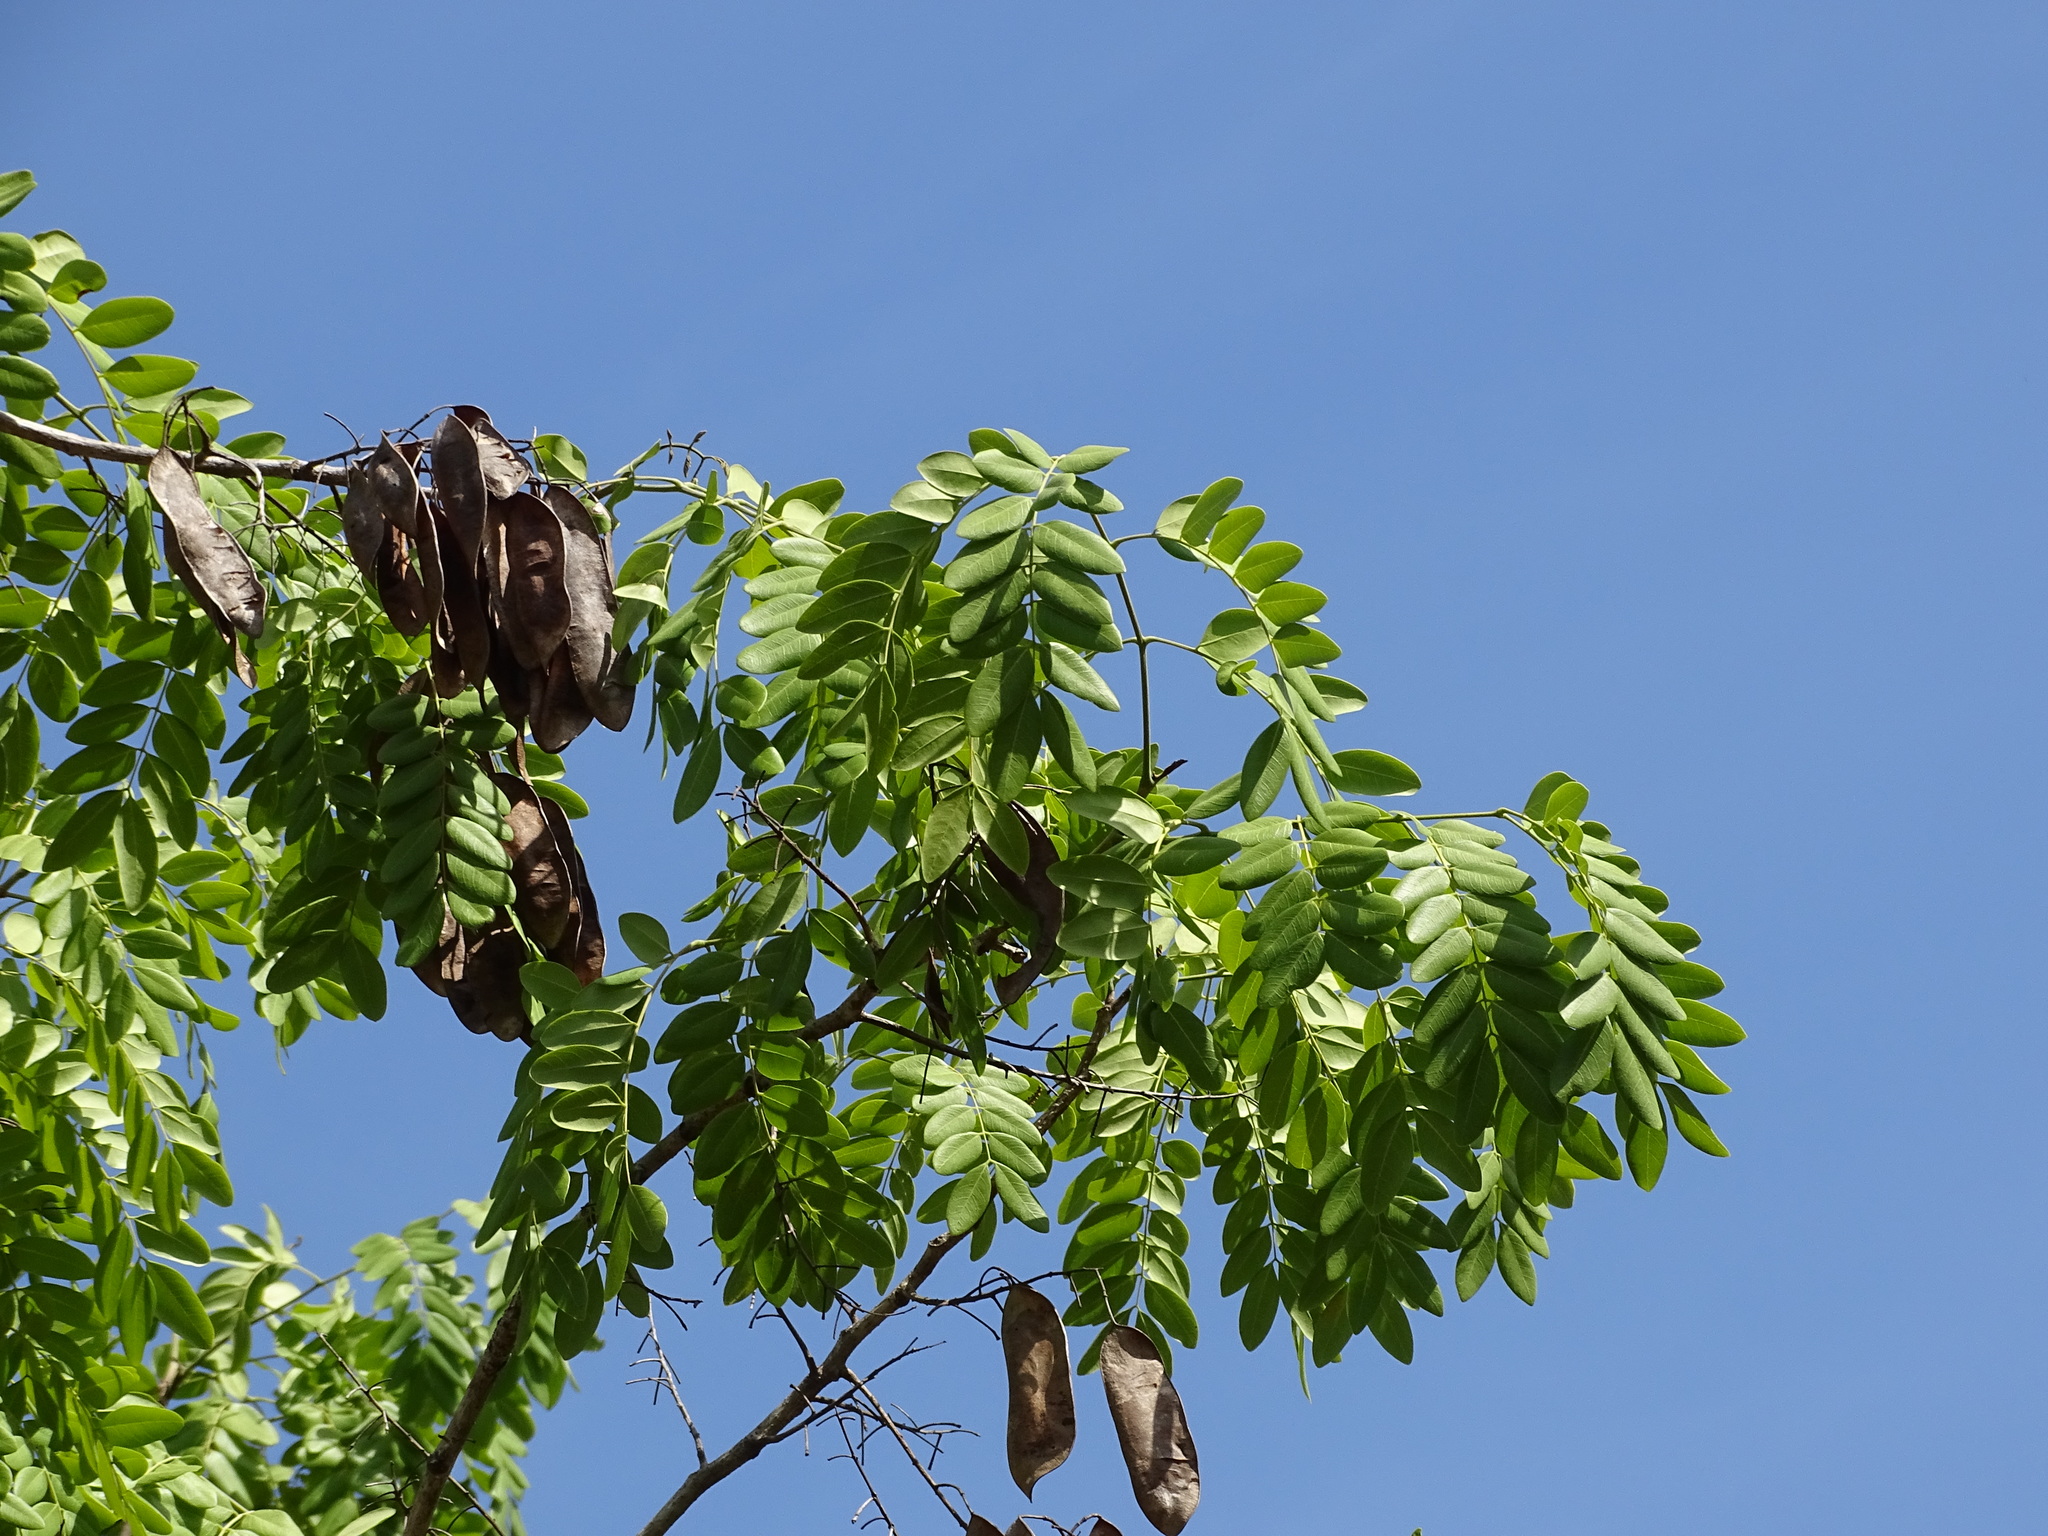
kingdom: Plantae
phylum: Tracheophyta
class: Magnoliopsida
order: Fabales
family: Fabaceae
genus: Coulteria
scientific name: Coulteria mollis
